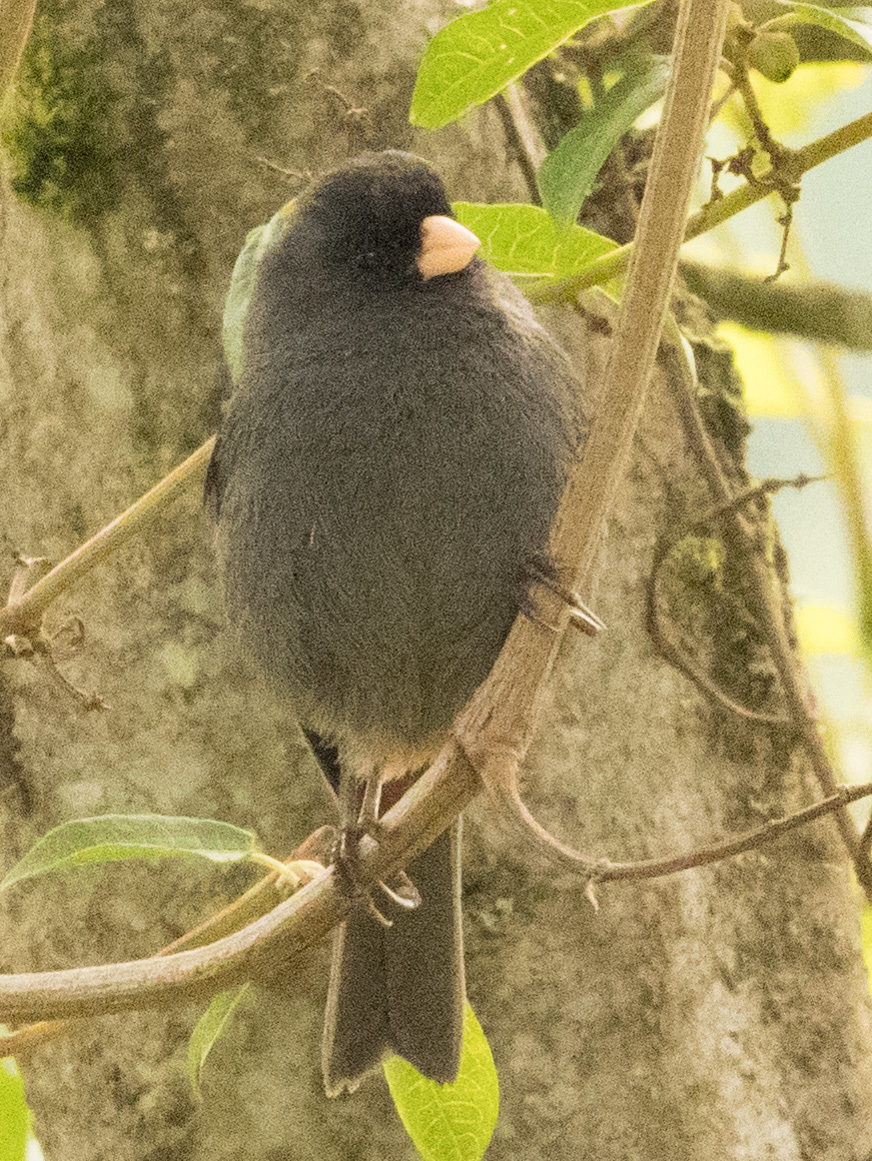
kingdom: Animalia
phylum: Chordata
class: Aves
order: Passeriformes
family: Thraupidae
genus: Catamenia
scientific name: Catamenia homochroa
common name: Paramo seedeater
